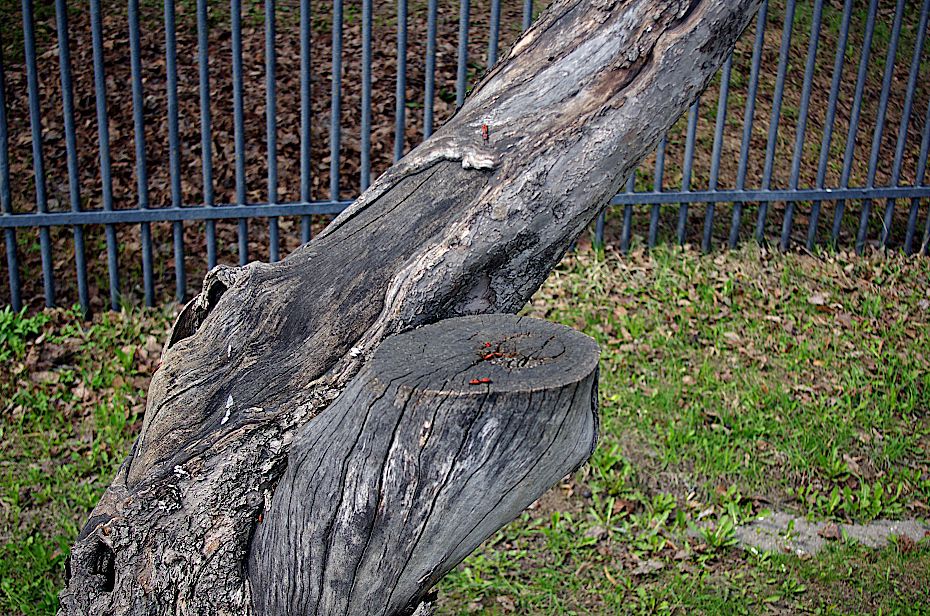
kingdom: Animalia
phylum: Arthropoda
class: Insecta
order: Hemiptera
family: Pyrrhocoridae
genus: Pyrrhocoris
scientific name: Pyrrhocoris apterus
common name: Firebug
